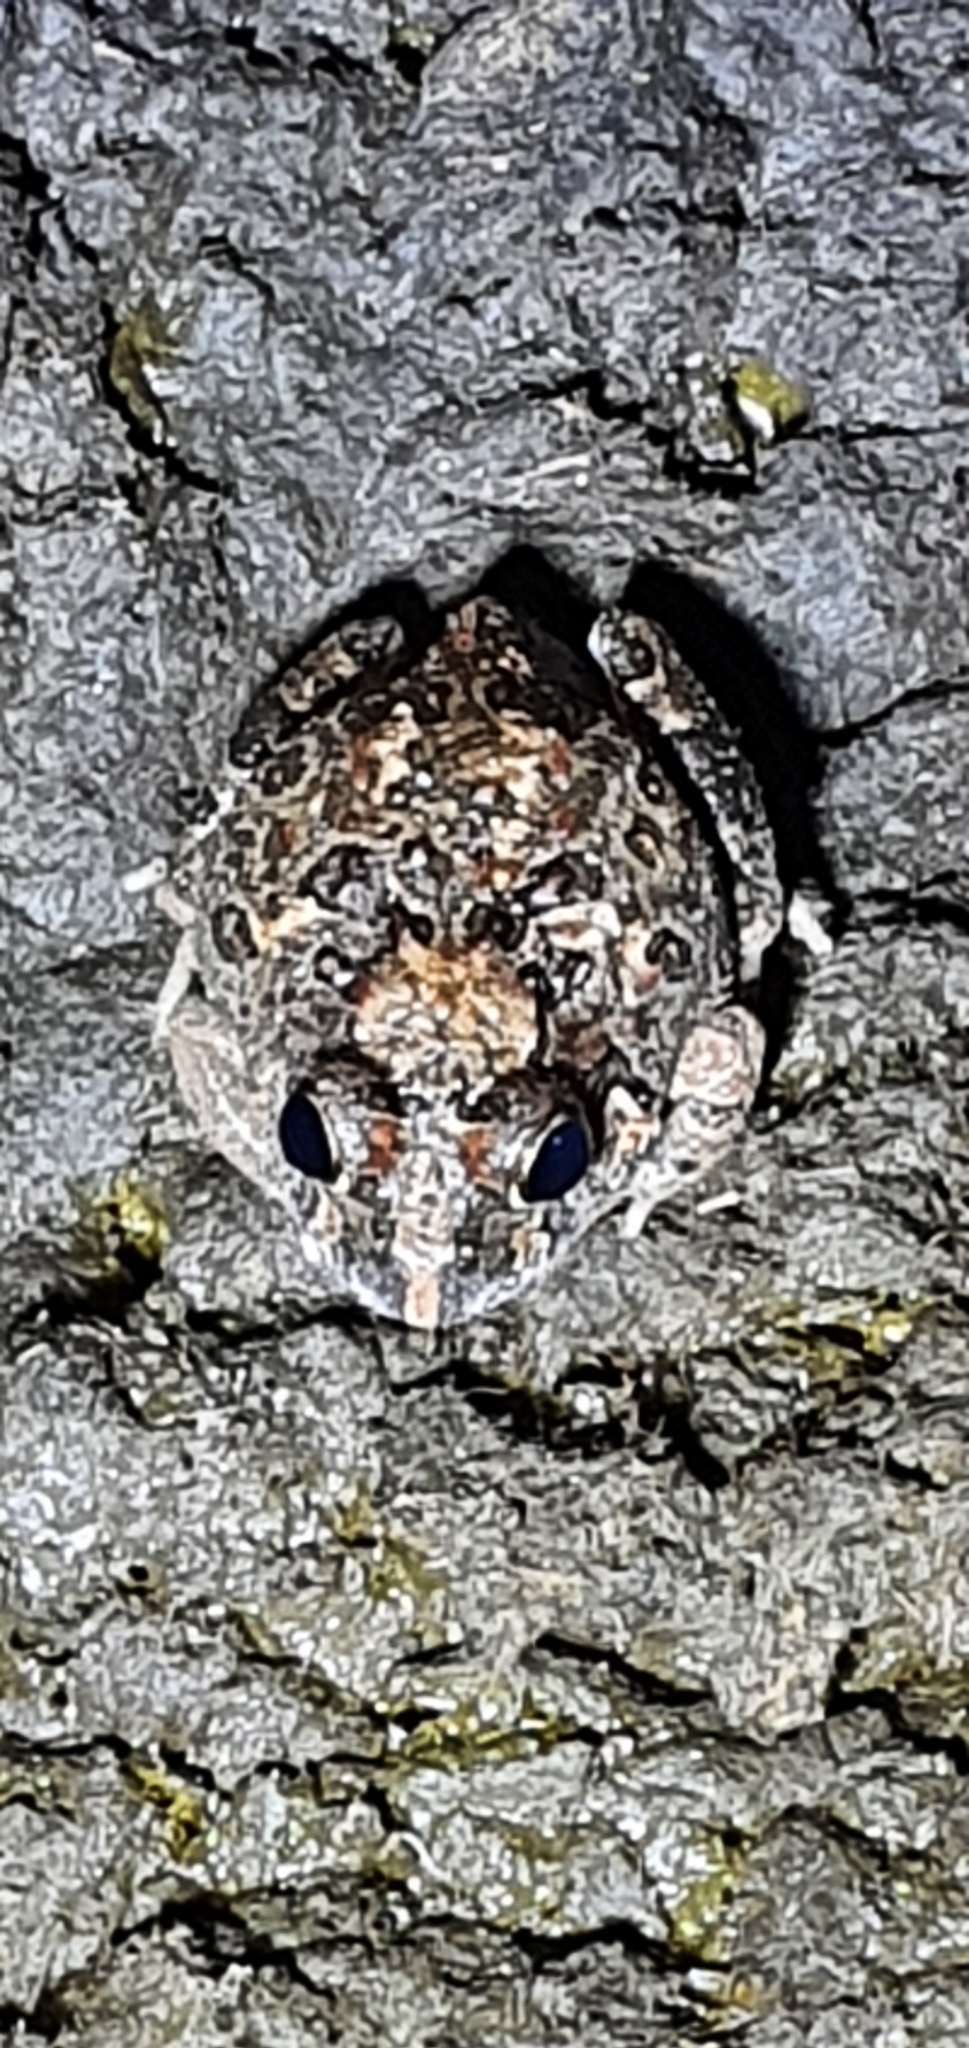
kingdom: Animalia
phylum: Chordata
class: Amphibia
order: Anura
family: Limnodynastidae
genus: Platyplectrum
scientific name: Platyplectrum ornatum
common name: Ornate burrowing frog
